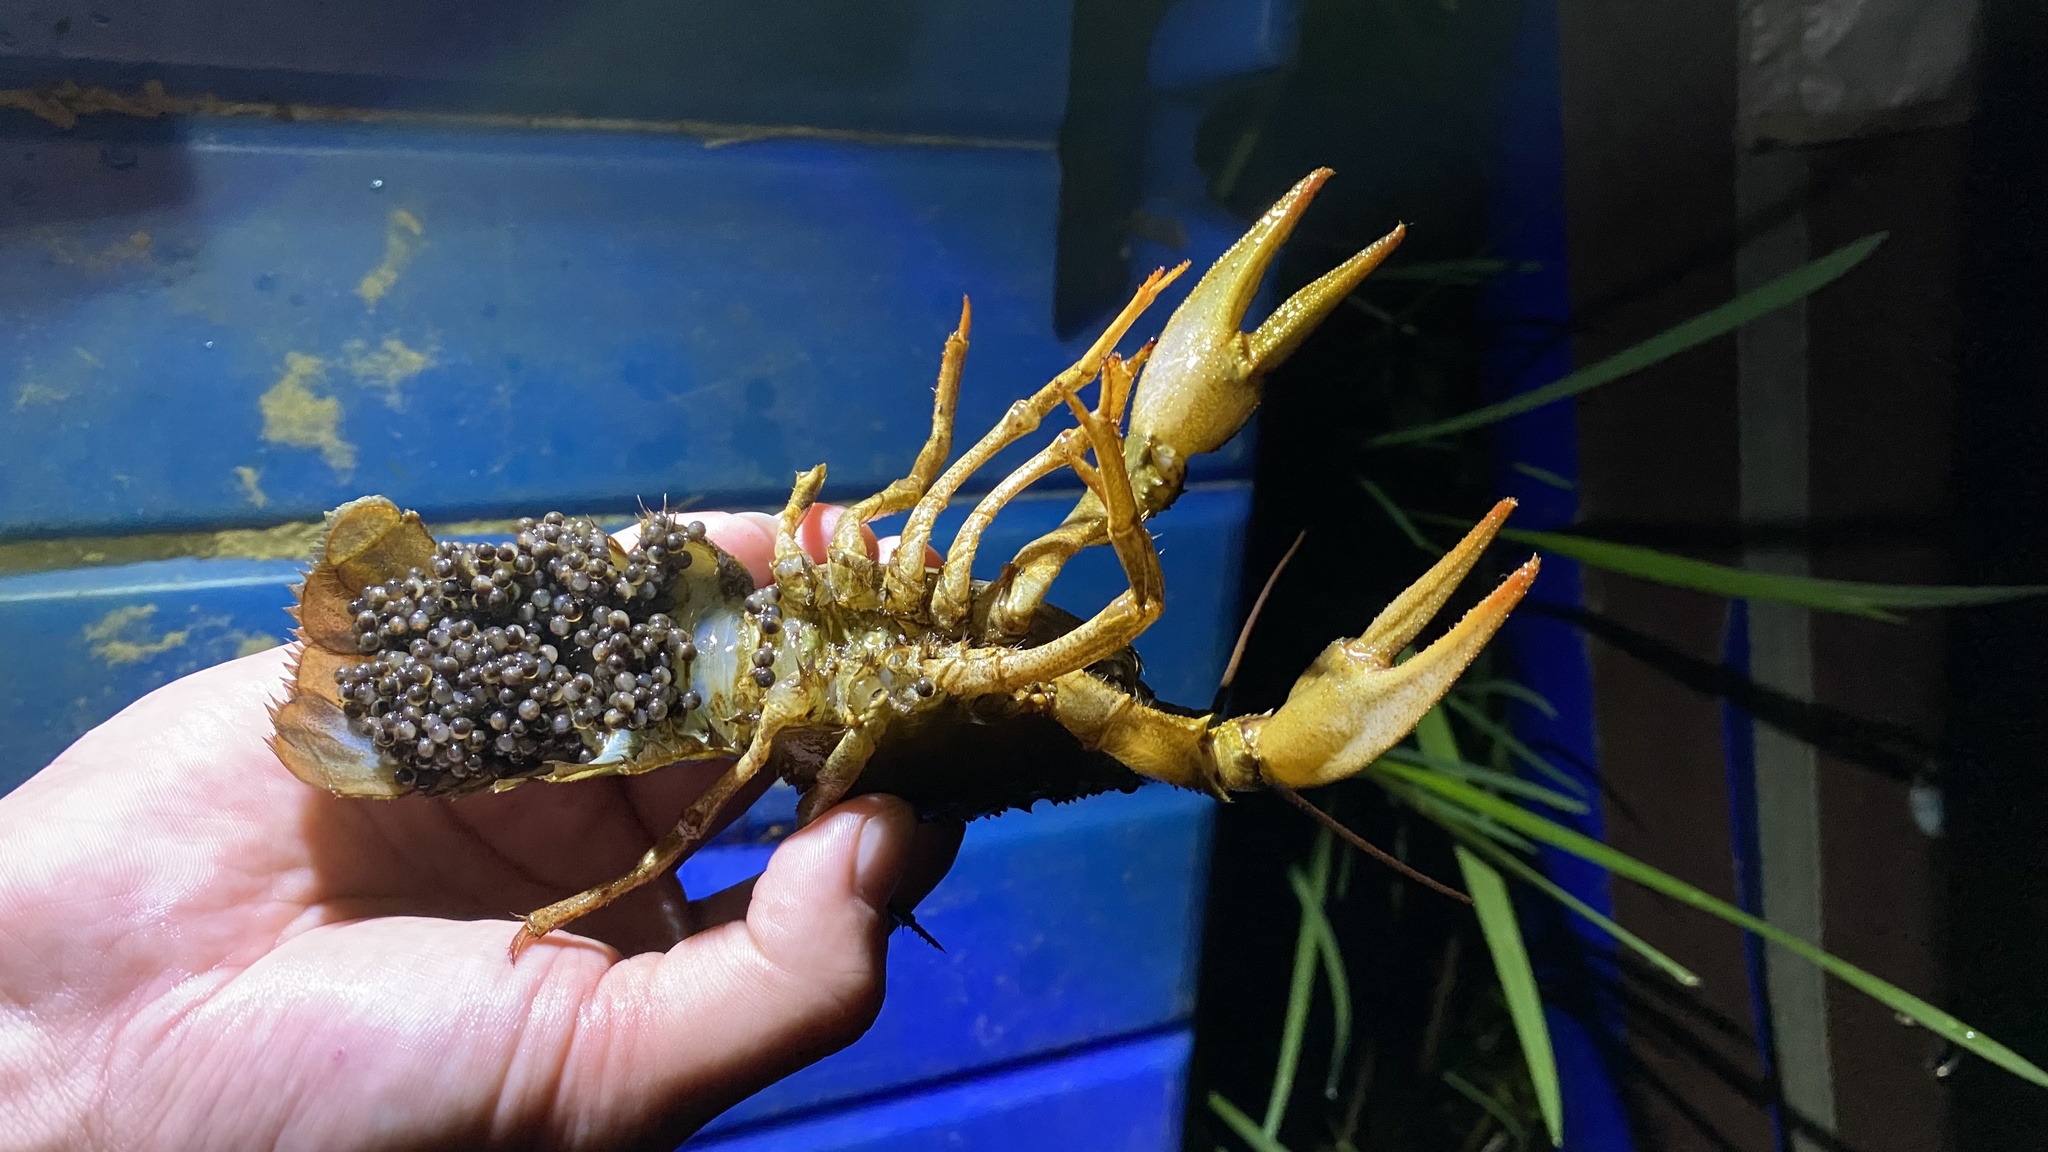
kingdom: Animalia
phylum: Arthropoda
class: Malacostraca
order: Decapoda
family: Astacidae
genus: Pontastacus
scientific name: Pontastacus leptodactylus
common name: Danube crayfish
